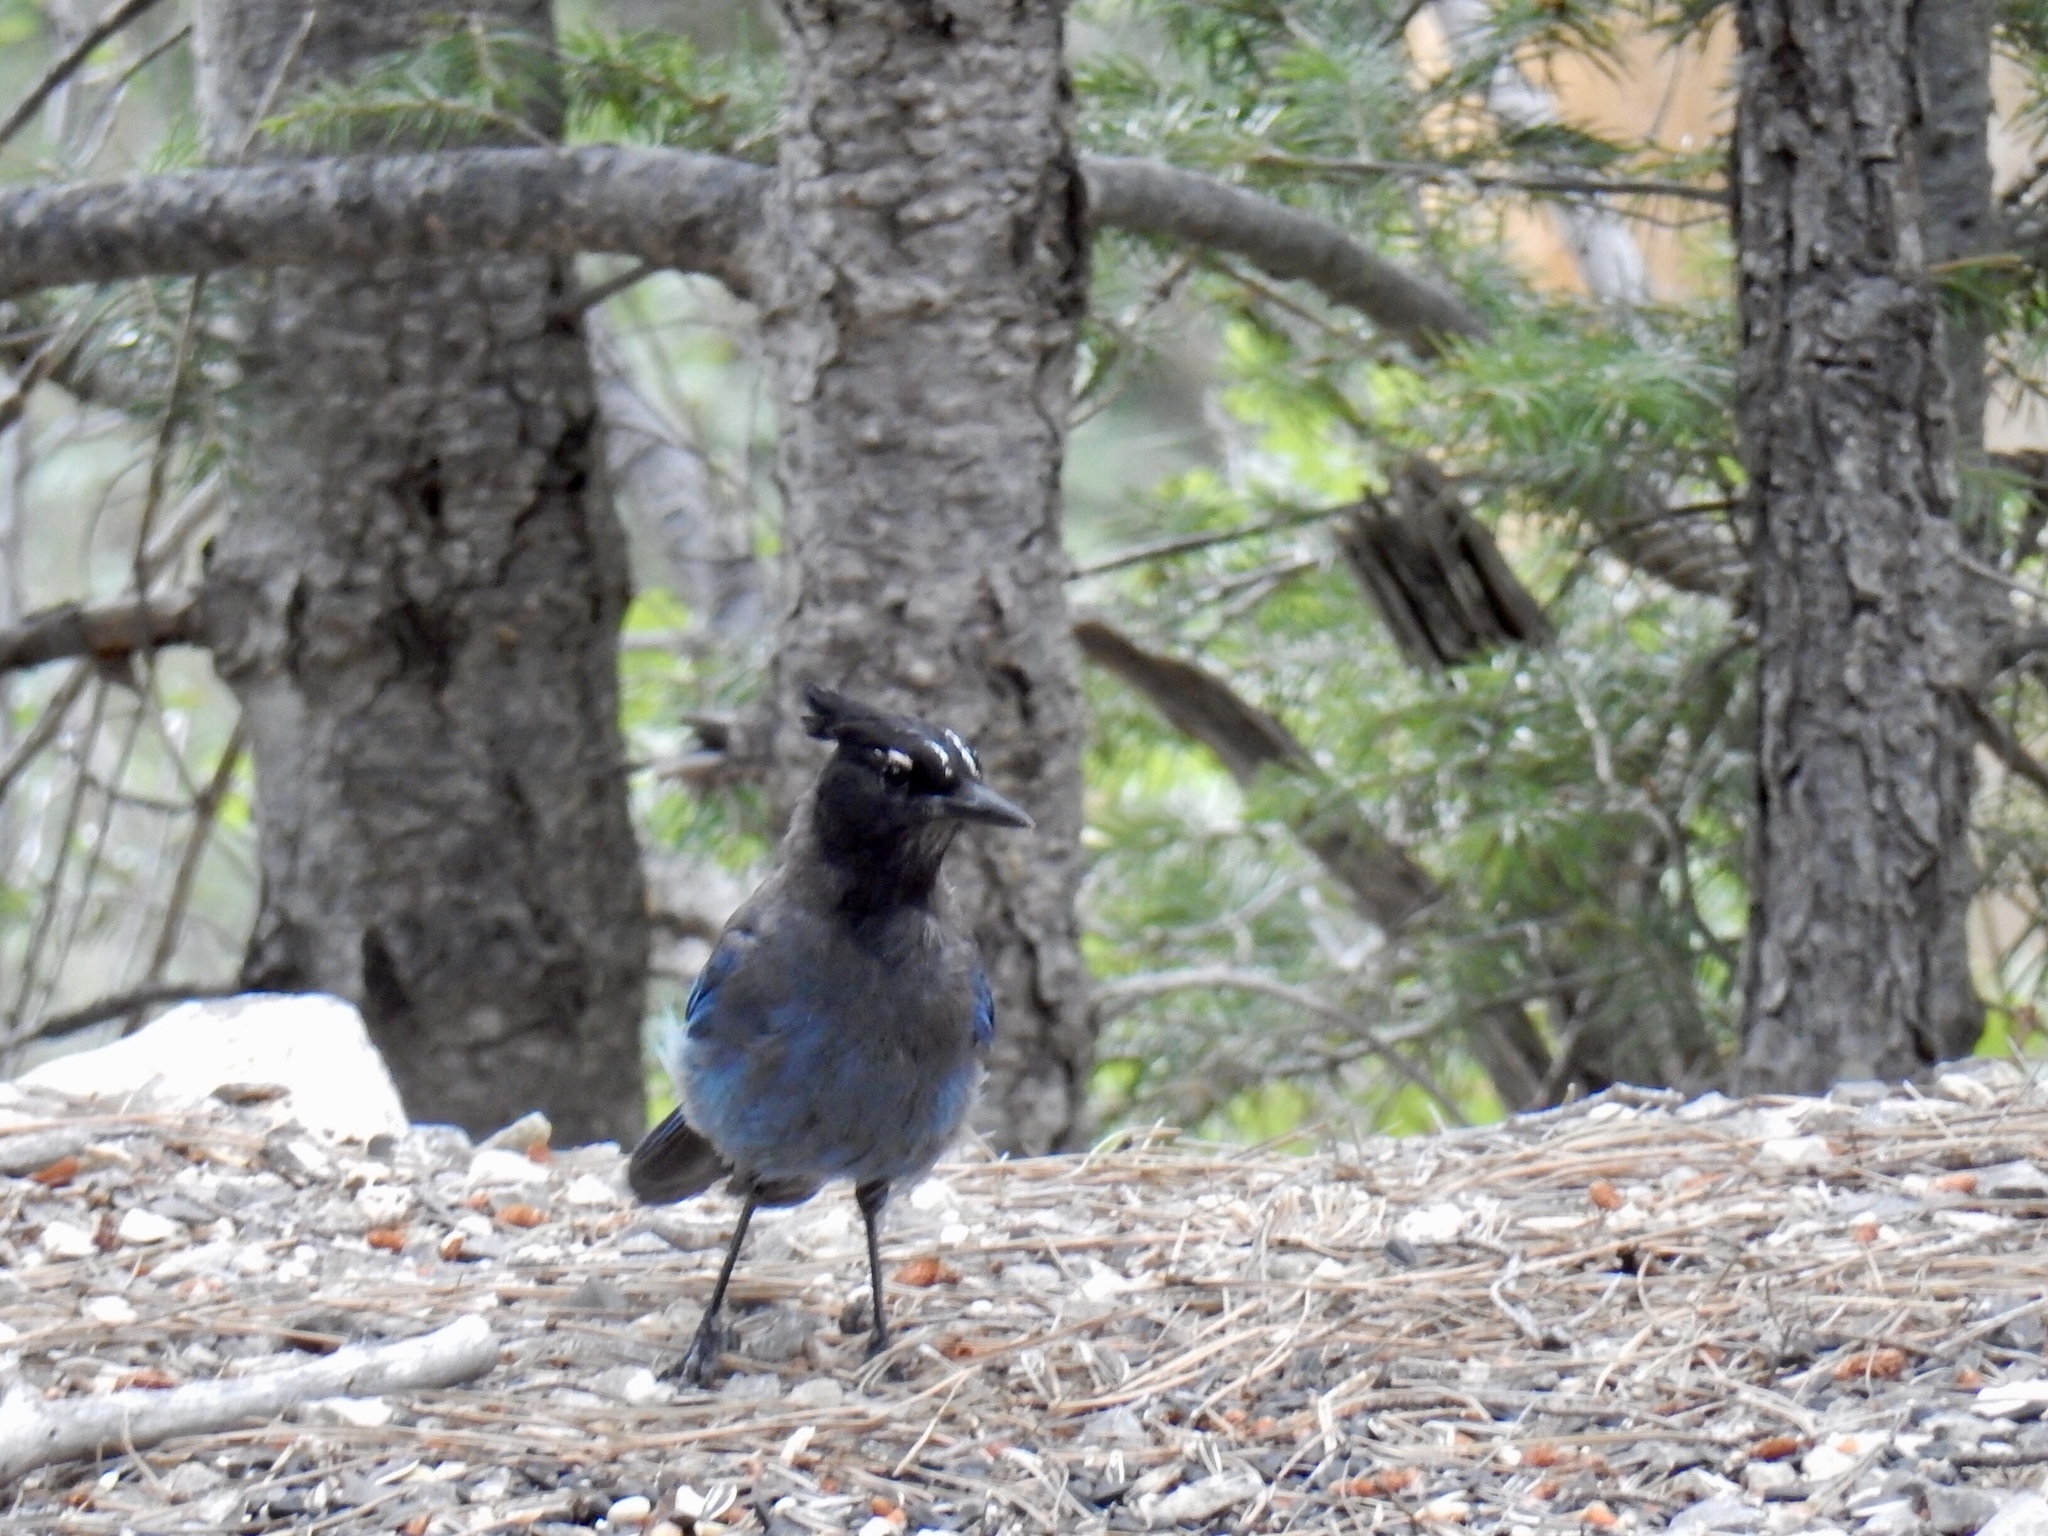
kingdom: Animalia
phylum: Chordata
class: Aves
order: Passeriformes
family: Corvidae
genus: Cyanocitta
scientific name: Cyanocitta stelleri
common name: Steller's jay
